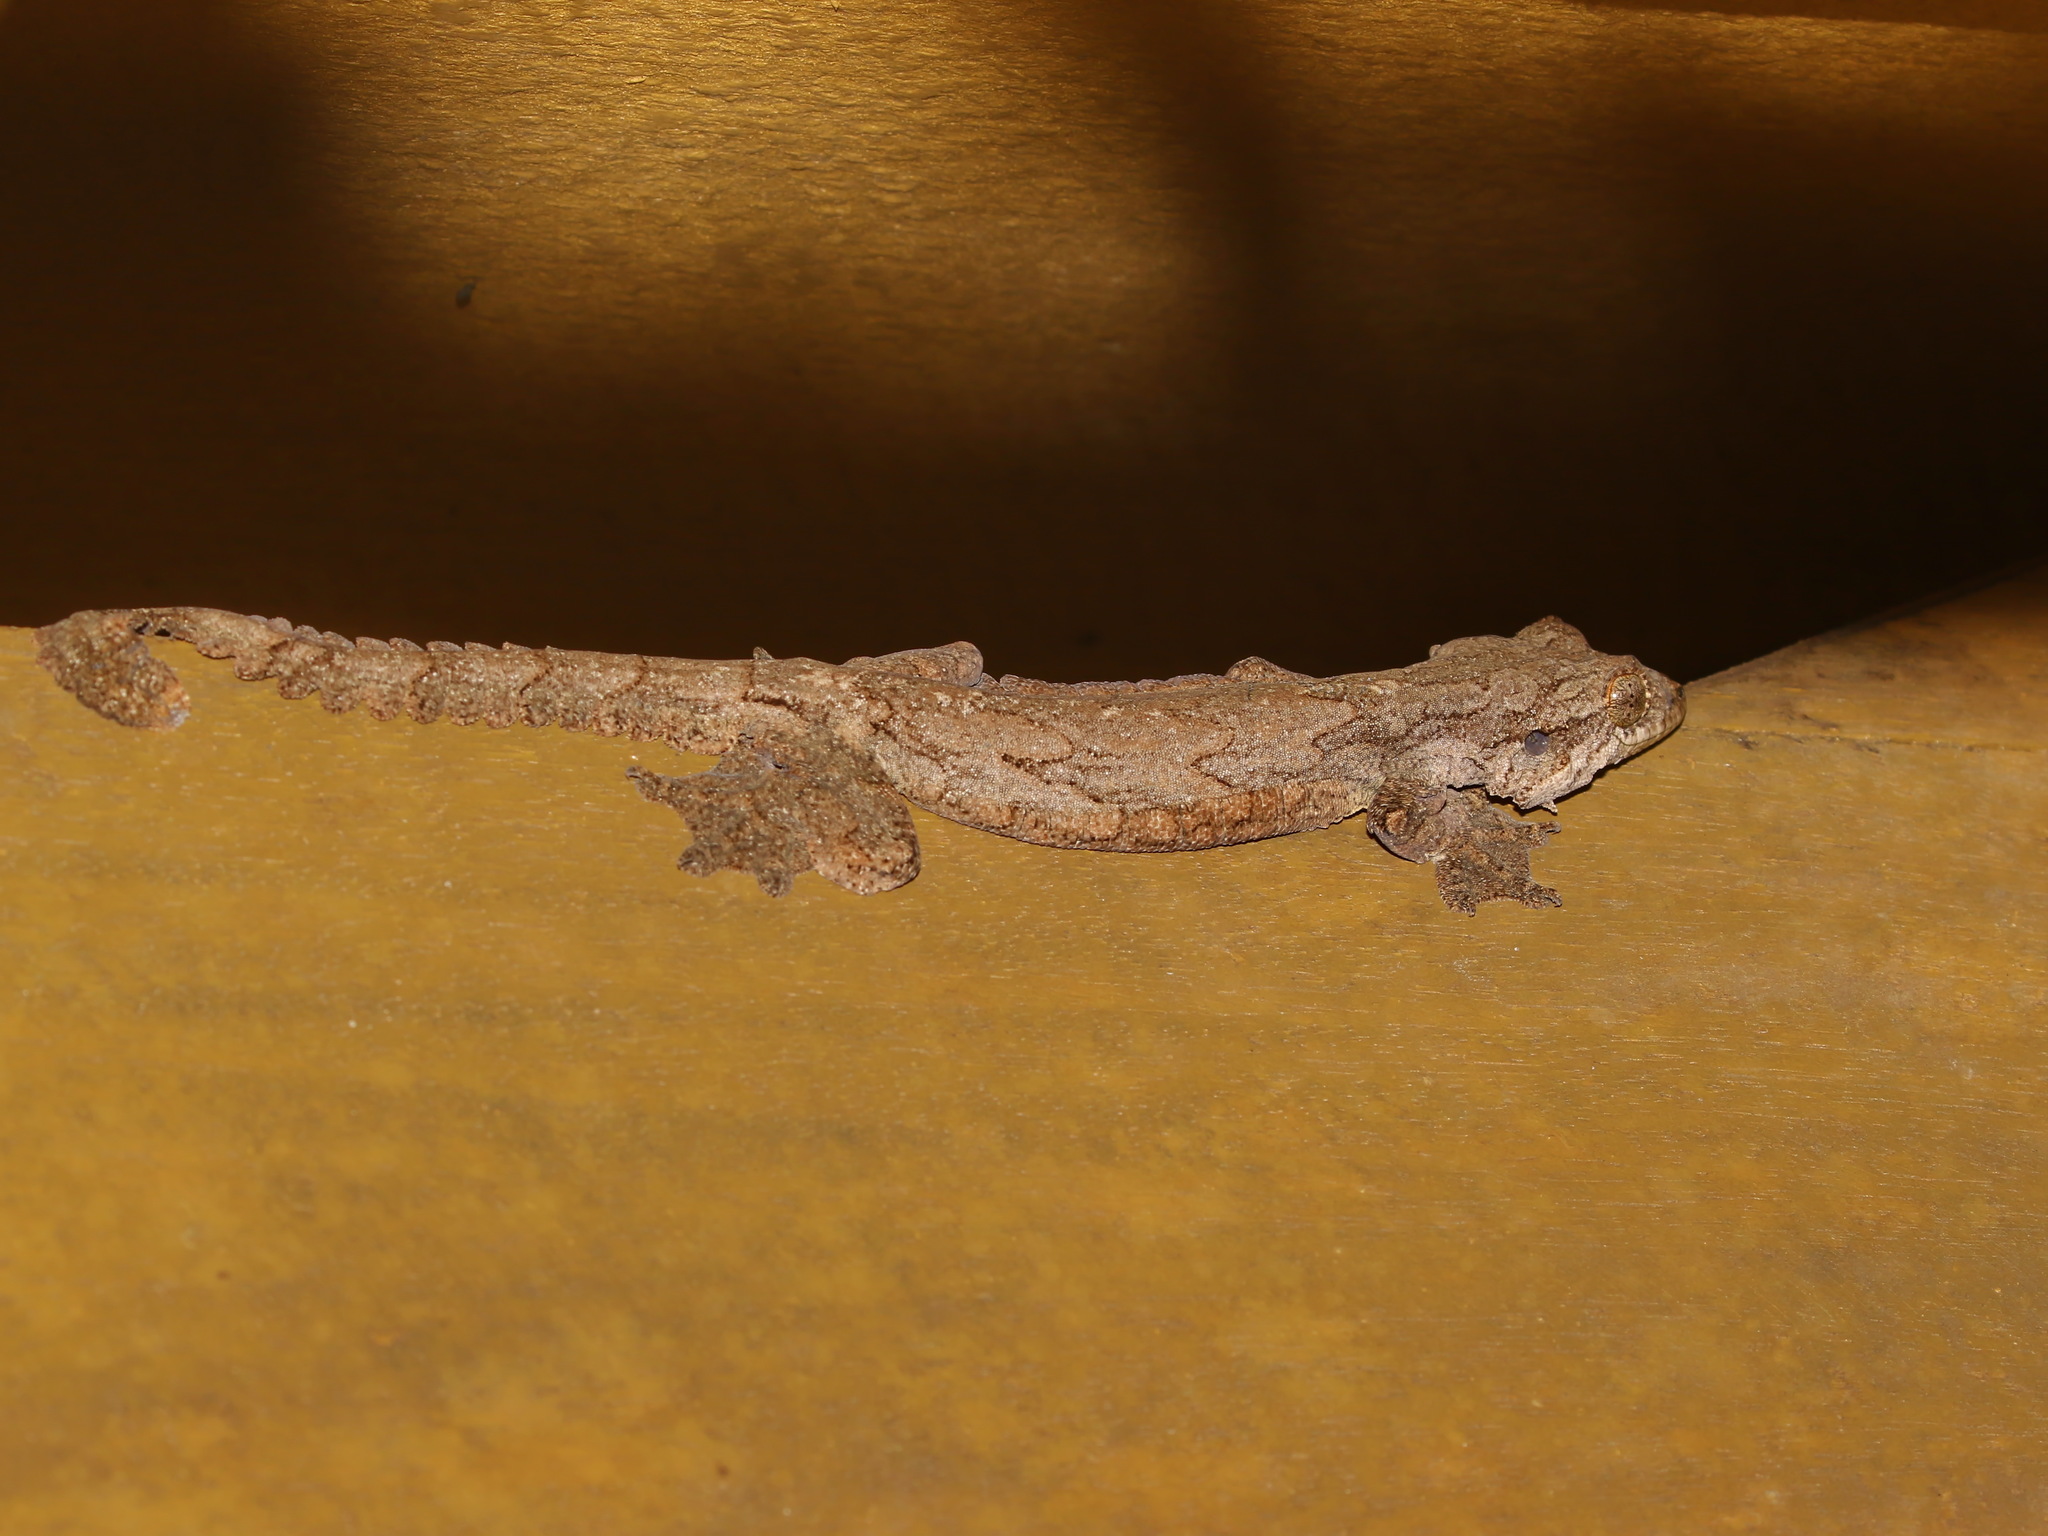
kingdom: Animalia
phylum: Chordata
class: Squamata
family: Gekkonidae
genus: Gekko
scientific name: Gekko cicakterbang
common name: Malaysia parachute gecko
